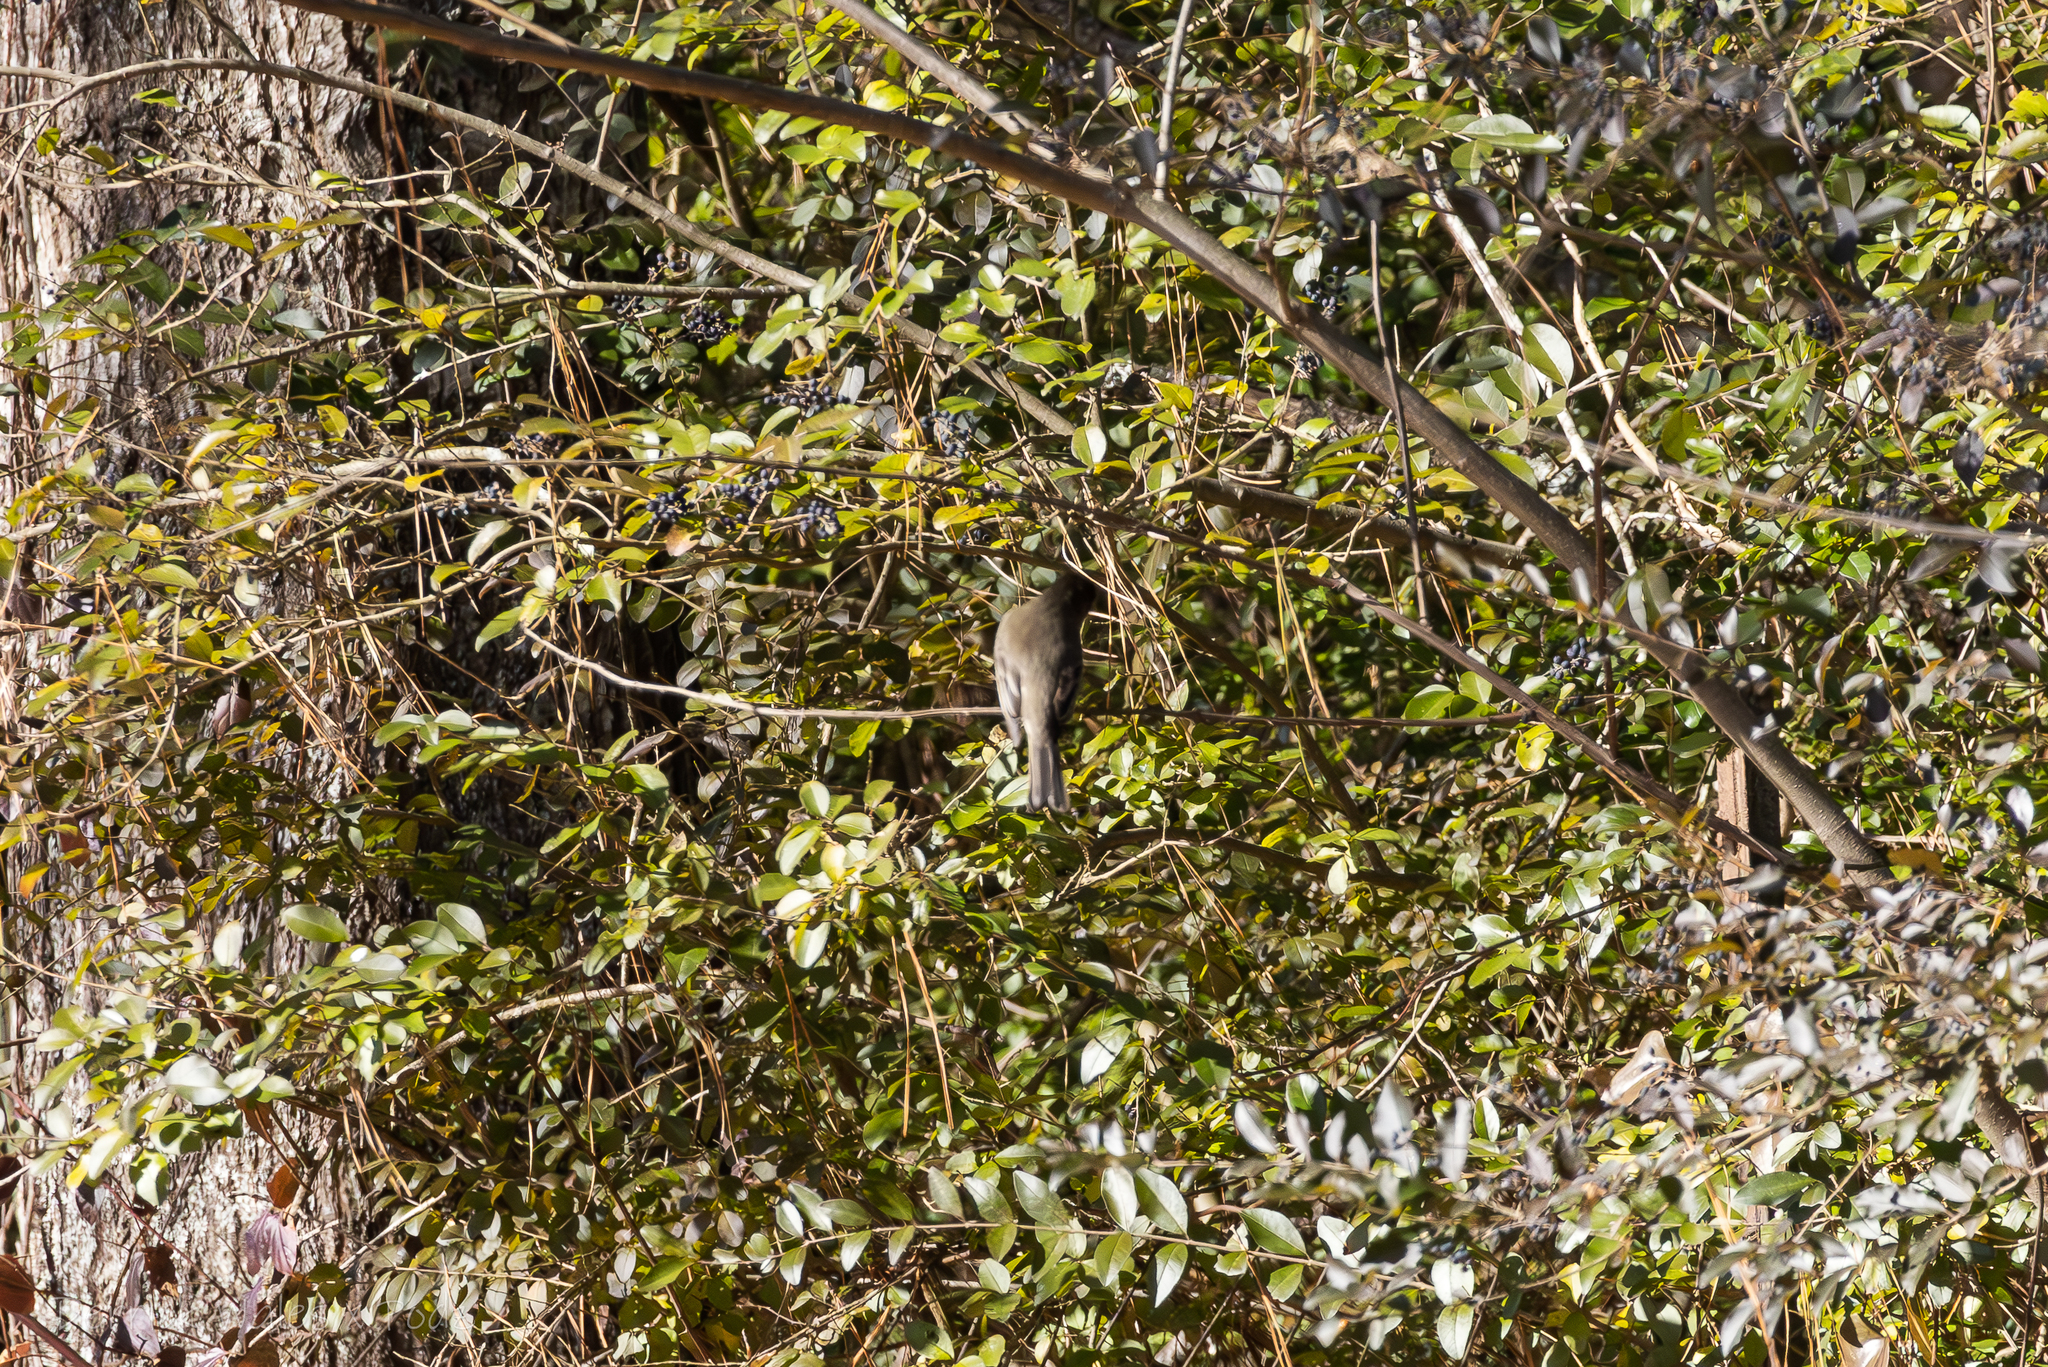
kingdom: Animalia
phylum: Chordata
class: Aves
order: Passeriformes
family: Tyrannidae
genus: Sayornis
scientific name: Sayornis phoebe
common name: Eastern phoebe
